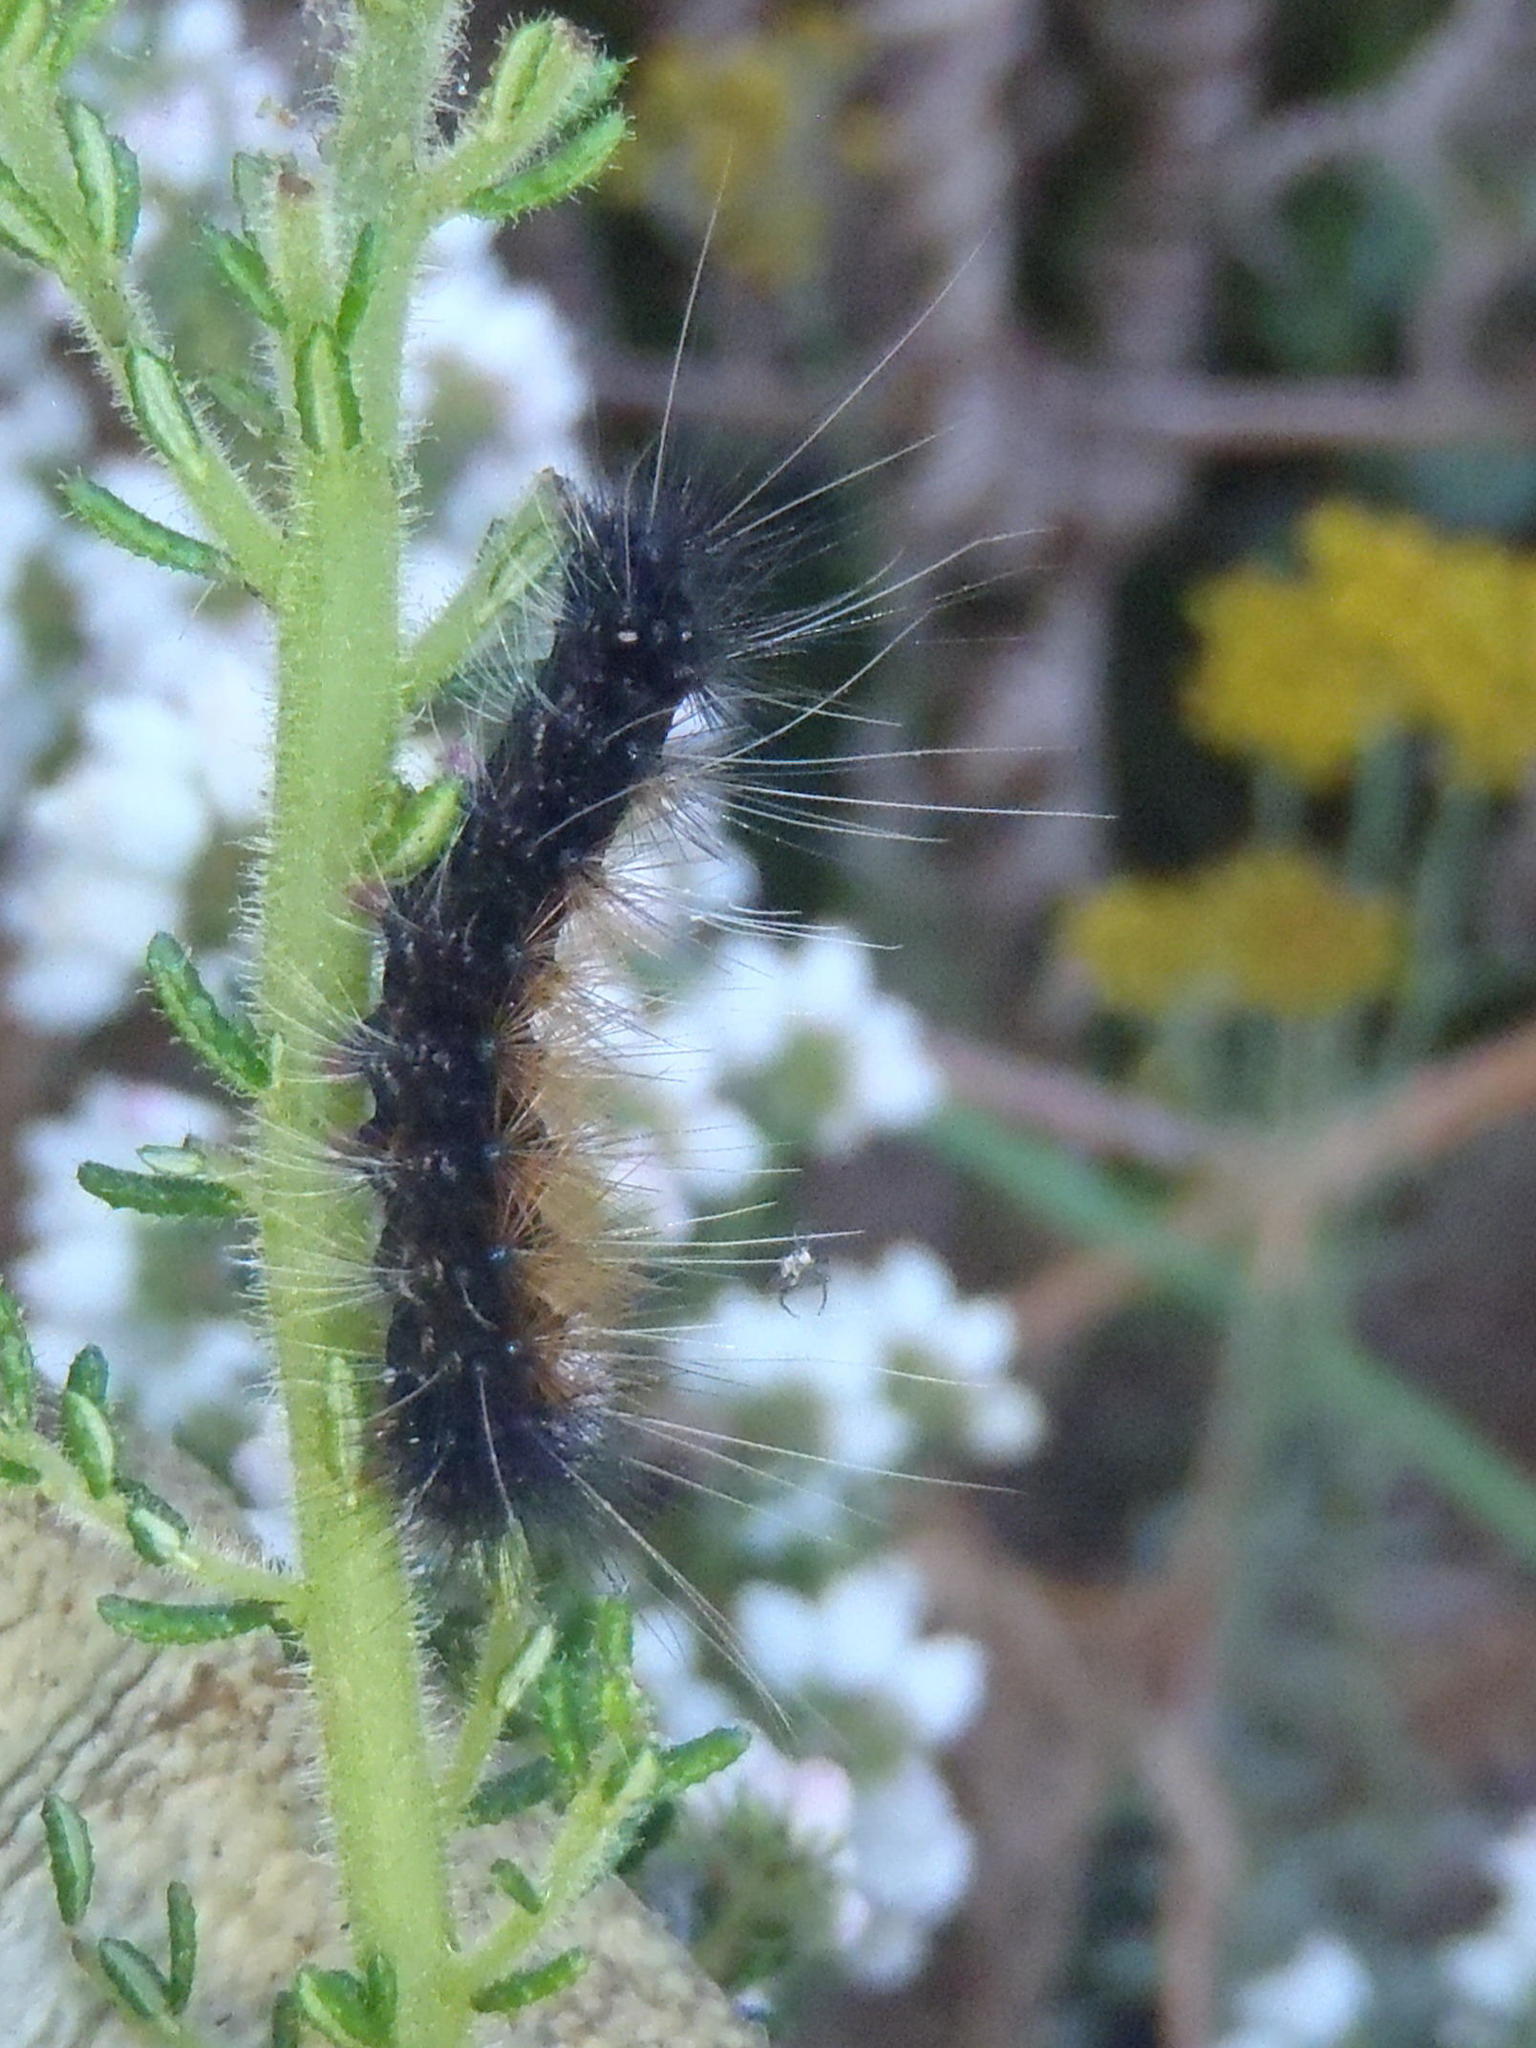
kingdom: Animalia
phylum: Arthropoda
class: Insecta
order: Lepidoptera
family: Erebidae
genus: Rhodogastria
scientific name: Rhodogastria amasis
